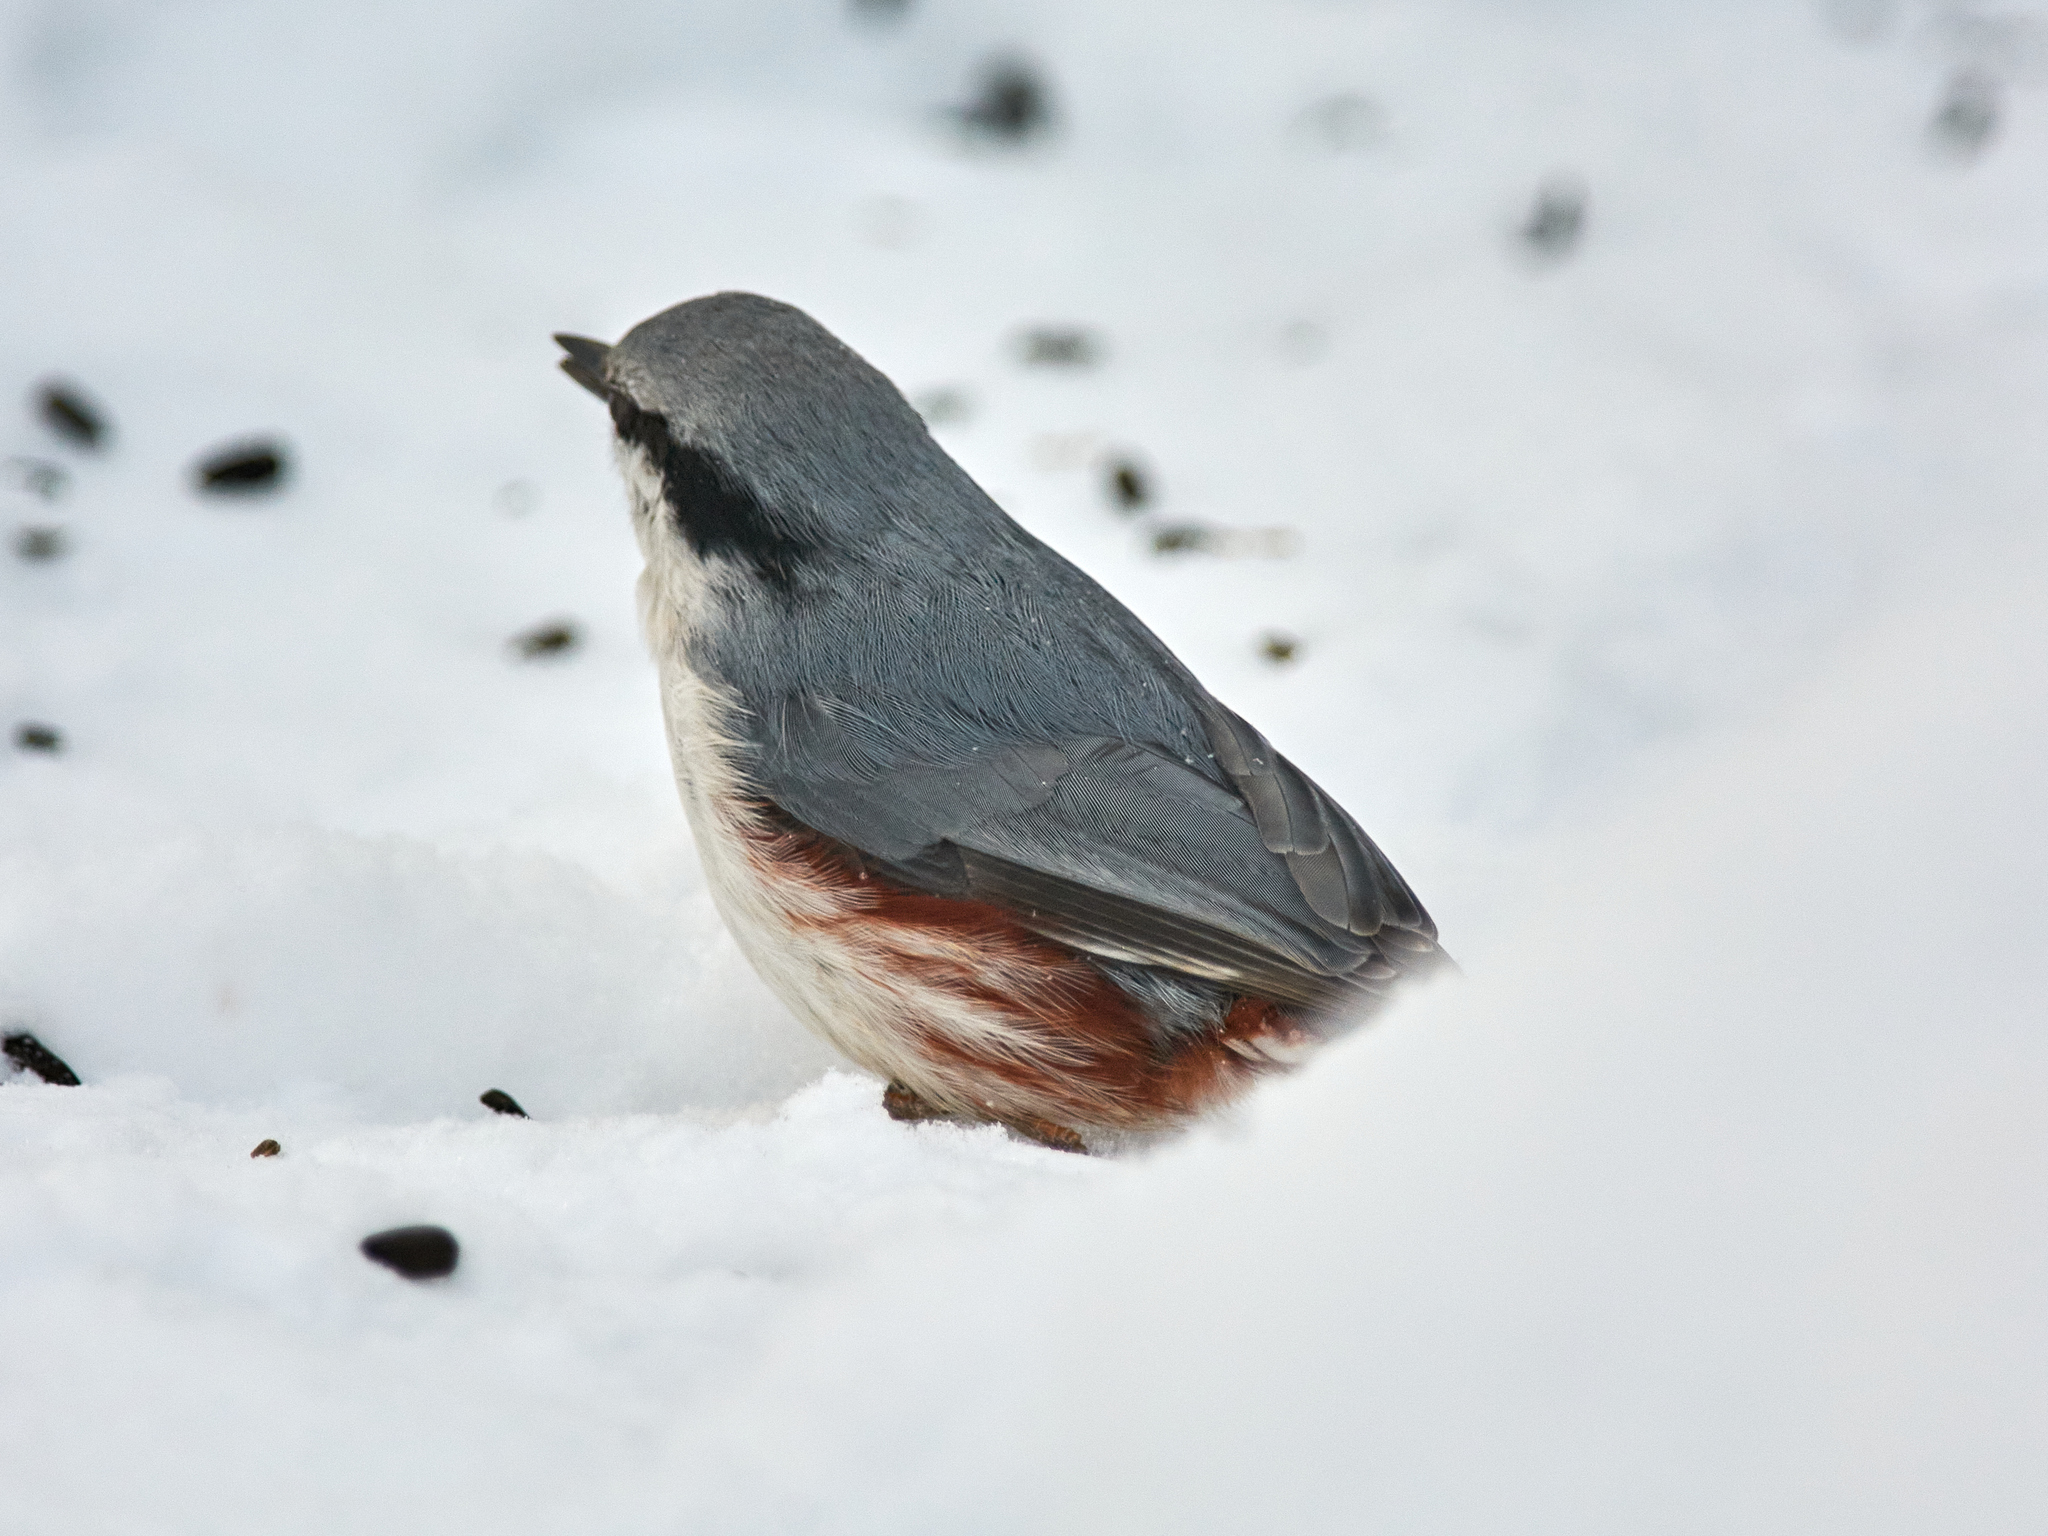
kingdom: Animalia
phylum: Chordata
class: Aves
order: Passeriformes
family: Sittidae
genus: Sitta
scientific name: Sitta europaea
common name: Eurasian nuthatch
